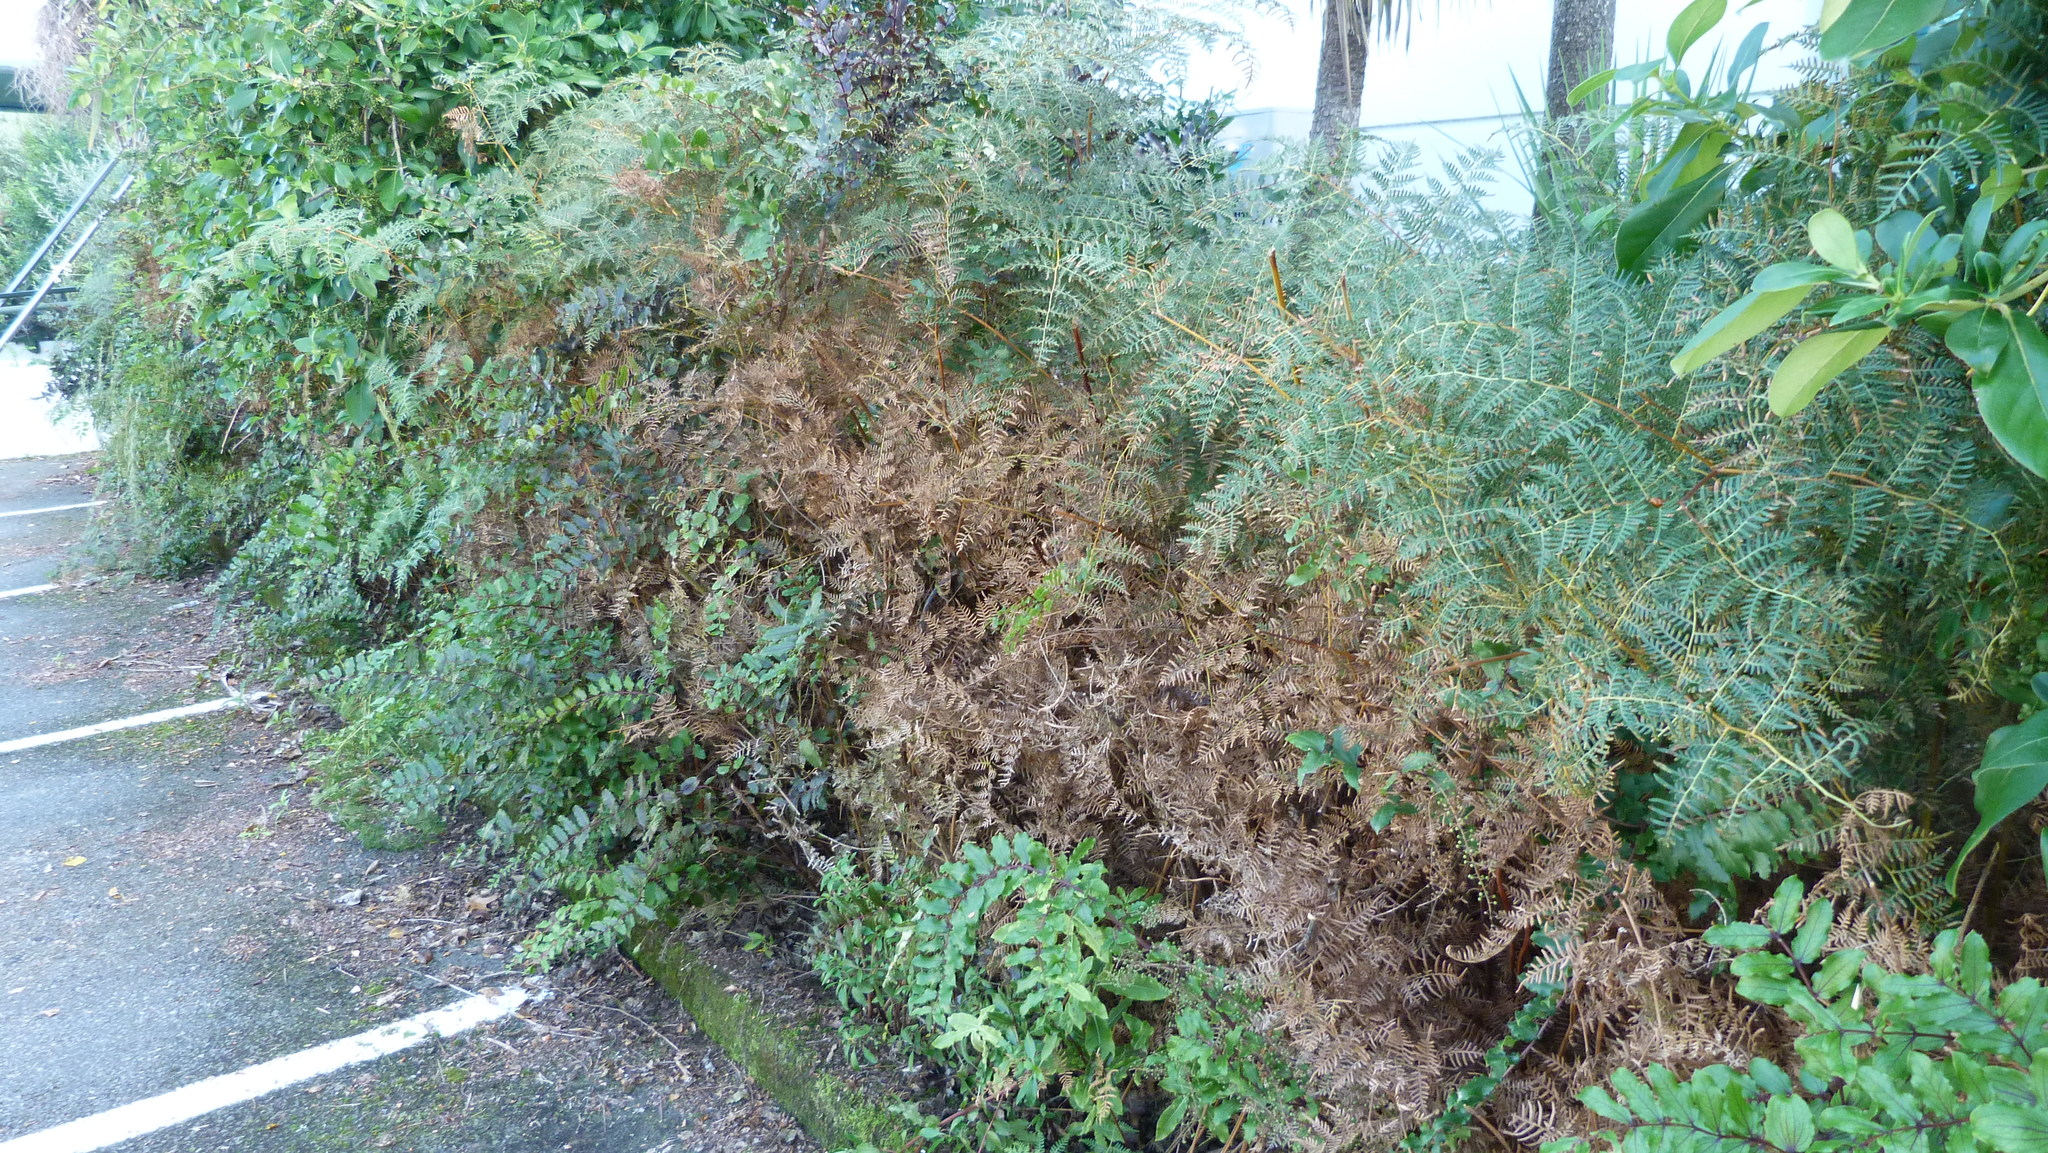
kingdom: Plantae
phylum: Tracheophyta
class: Polypodiopsida
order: Polypodiales
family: Dennstaedtiaceae
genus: Pteridium
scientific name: Pteridium esculentum
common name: Bracken fern
